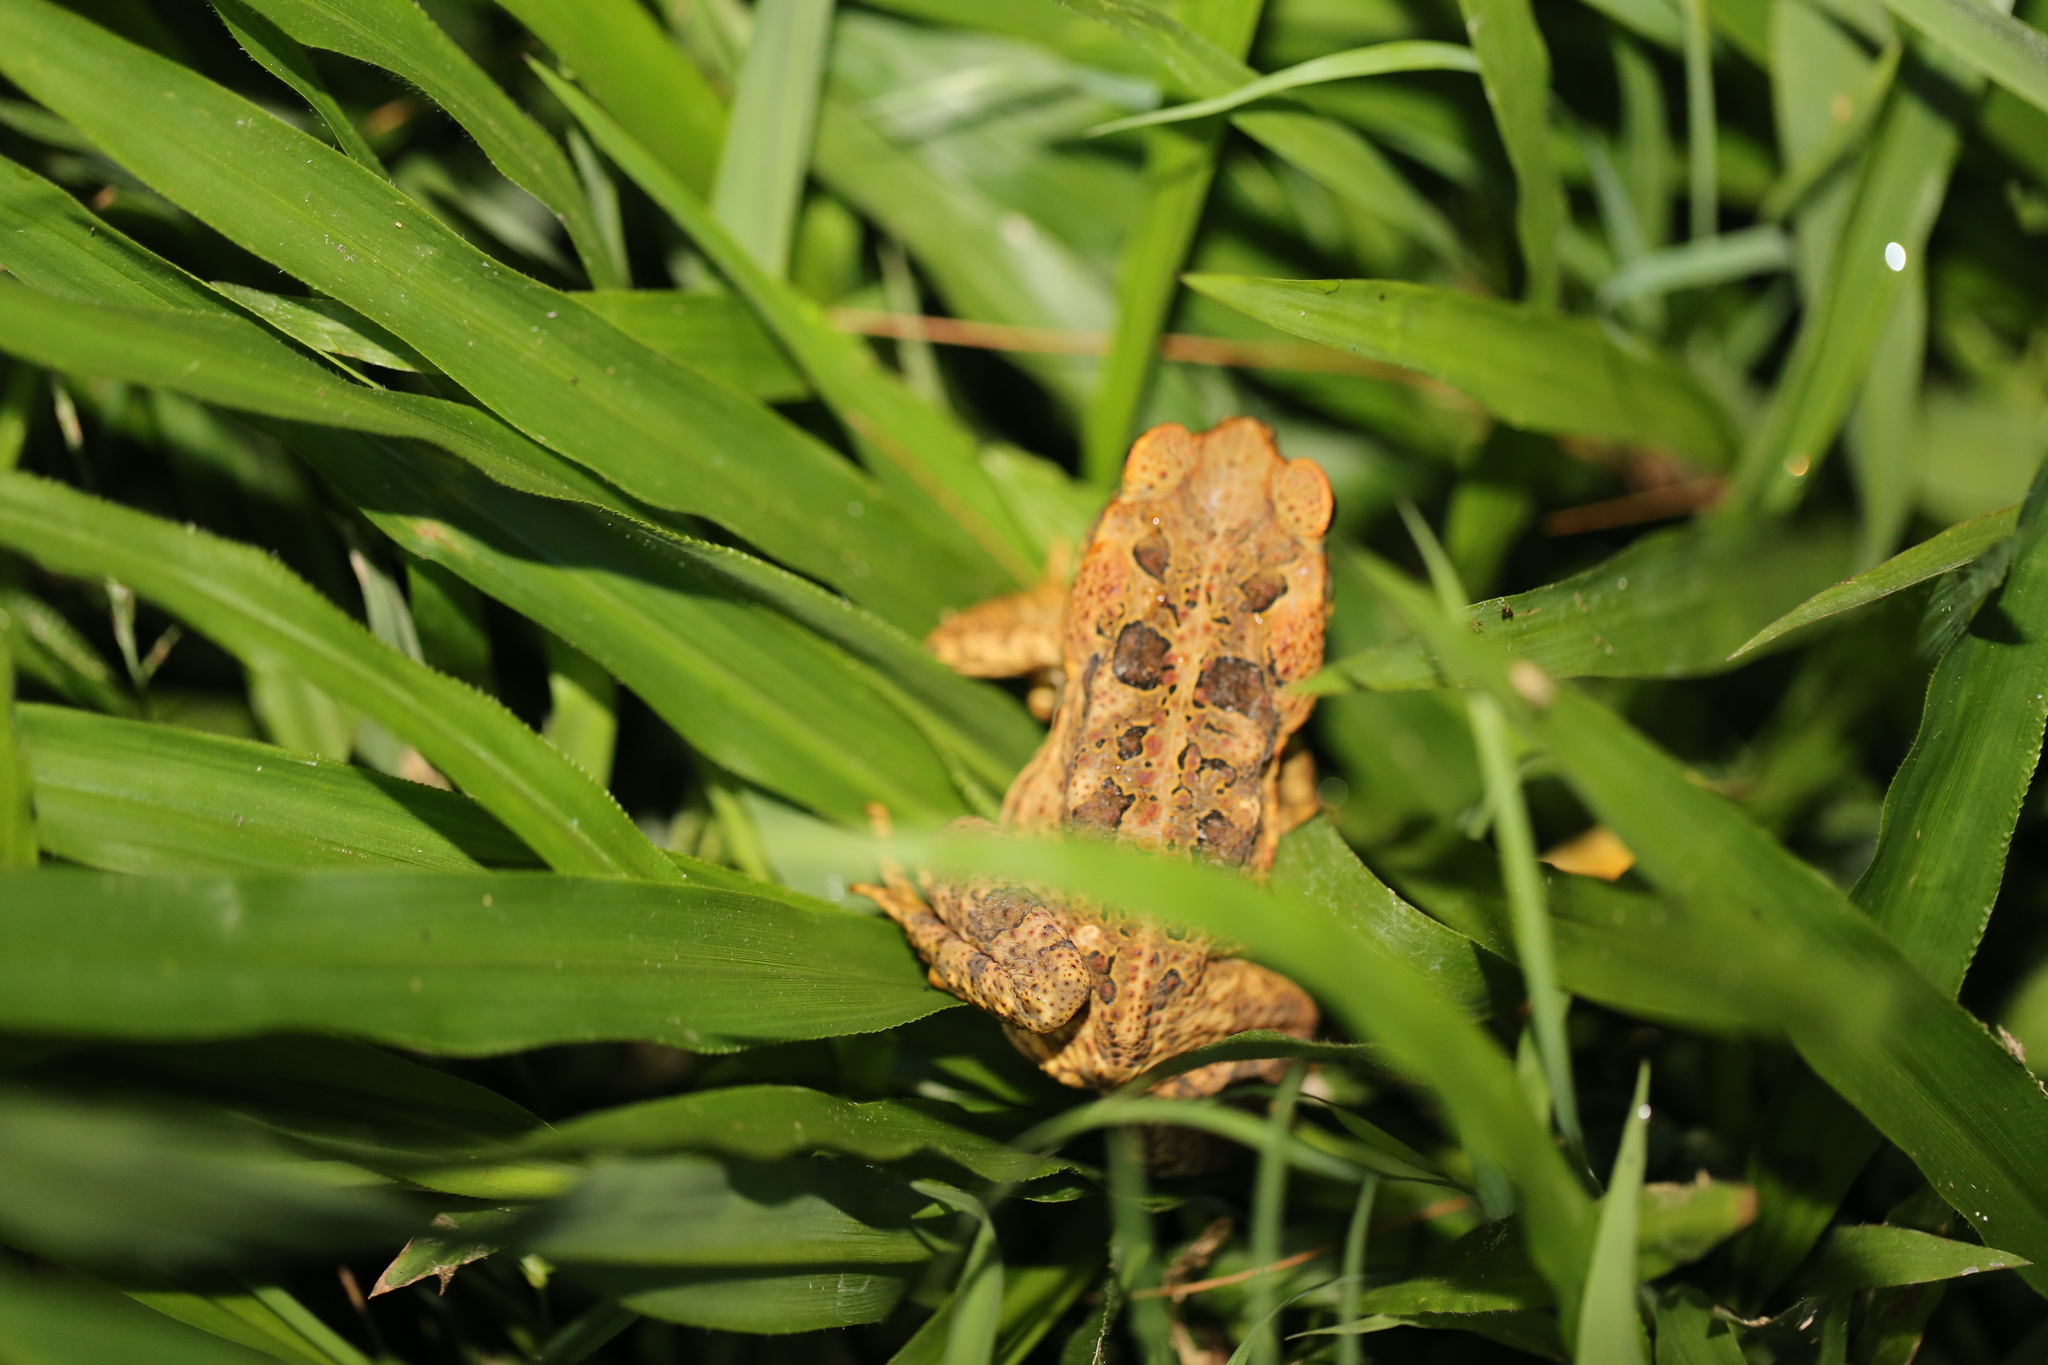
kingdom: Animalia
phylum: Chordata
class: Amphibia
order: Anura
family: Bufonidae
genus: Rhinella
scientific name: Rhinella marina
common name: Cane toad
